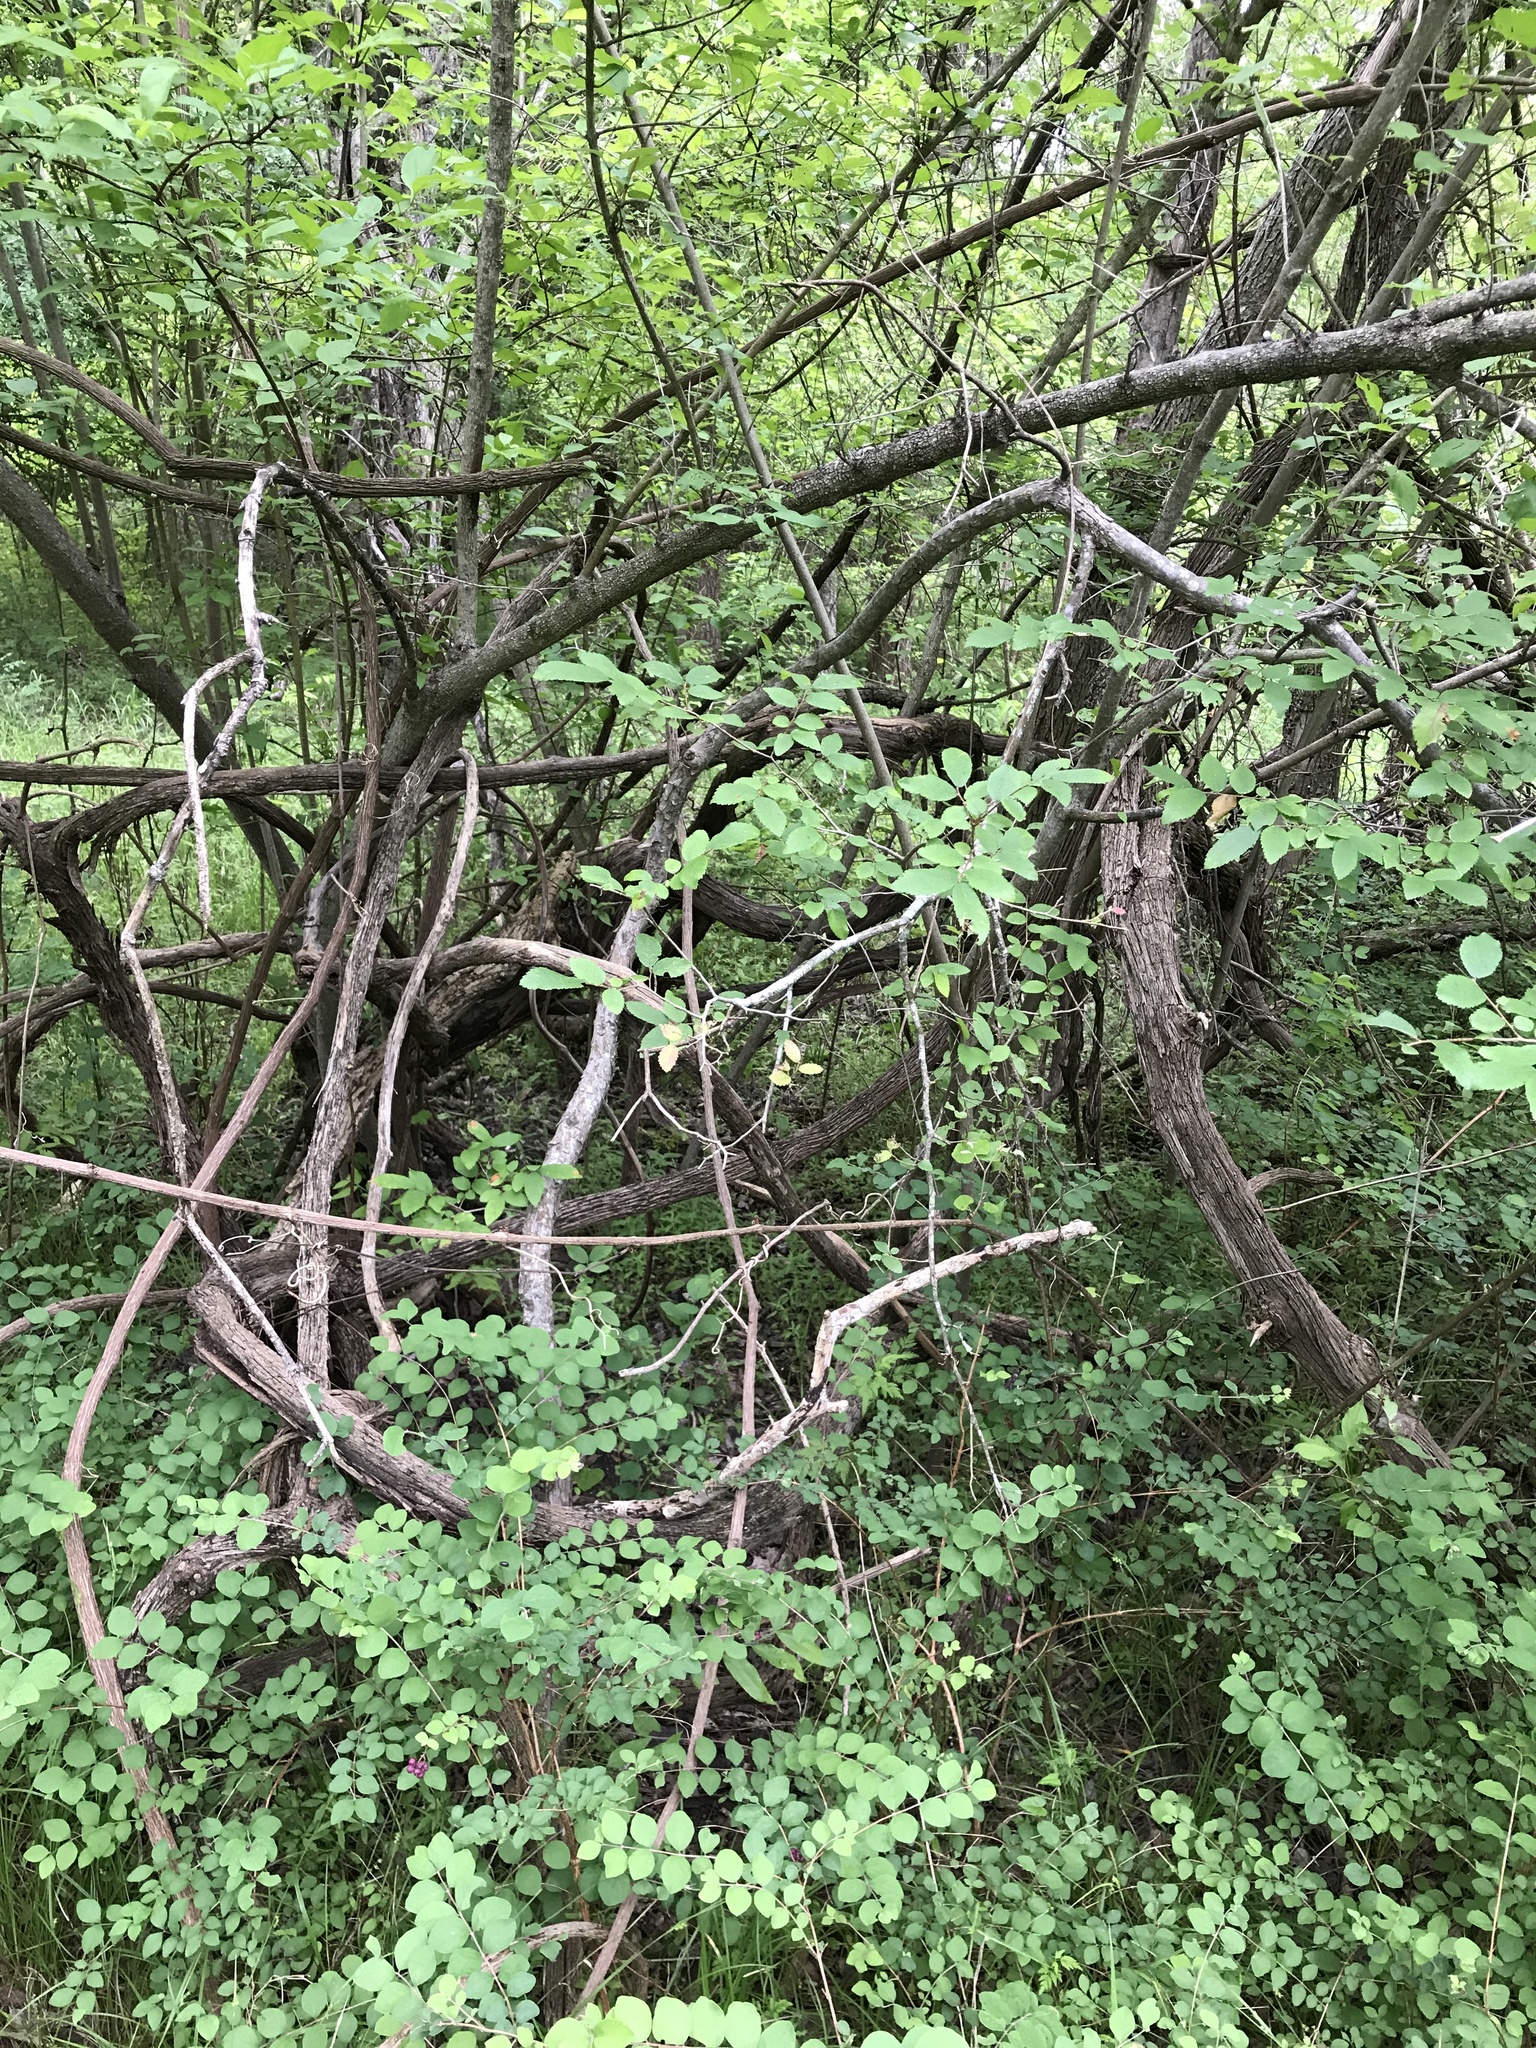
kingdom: Plantae
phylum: Tracheophyta
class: Magnoliopsida
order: Vitales
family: Vitaceae
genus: Vitis
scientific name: Vitis mustangensis
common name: Mustang grape
